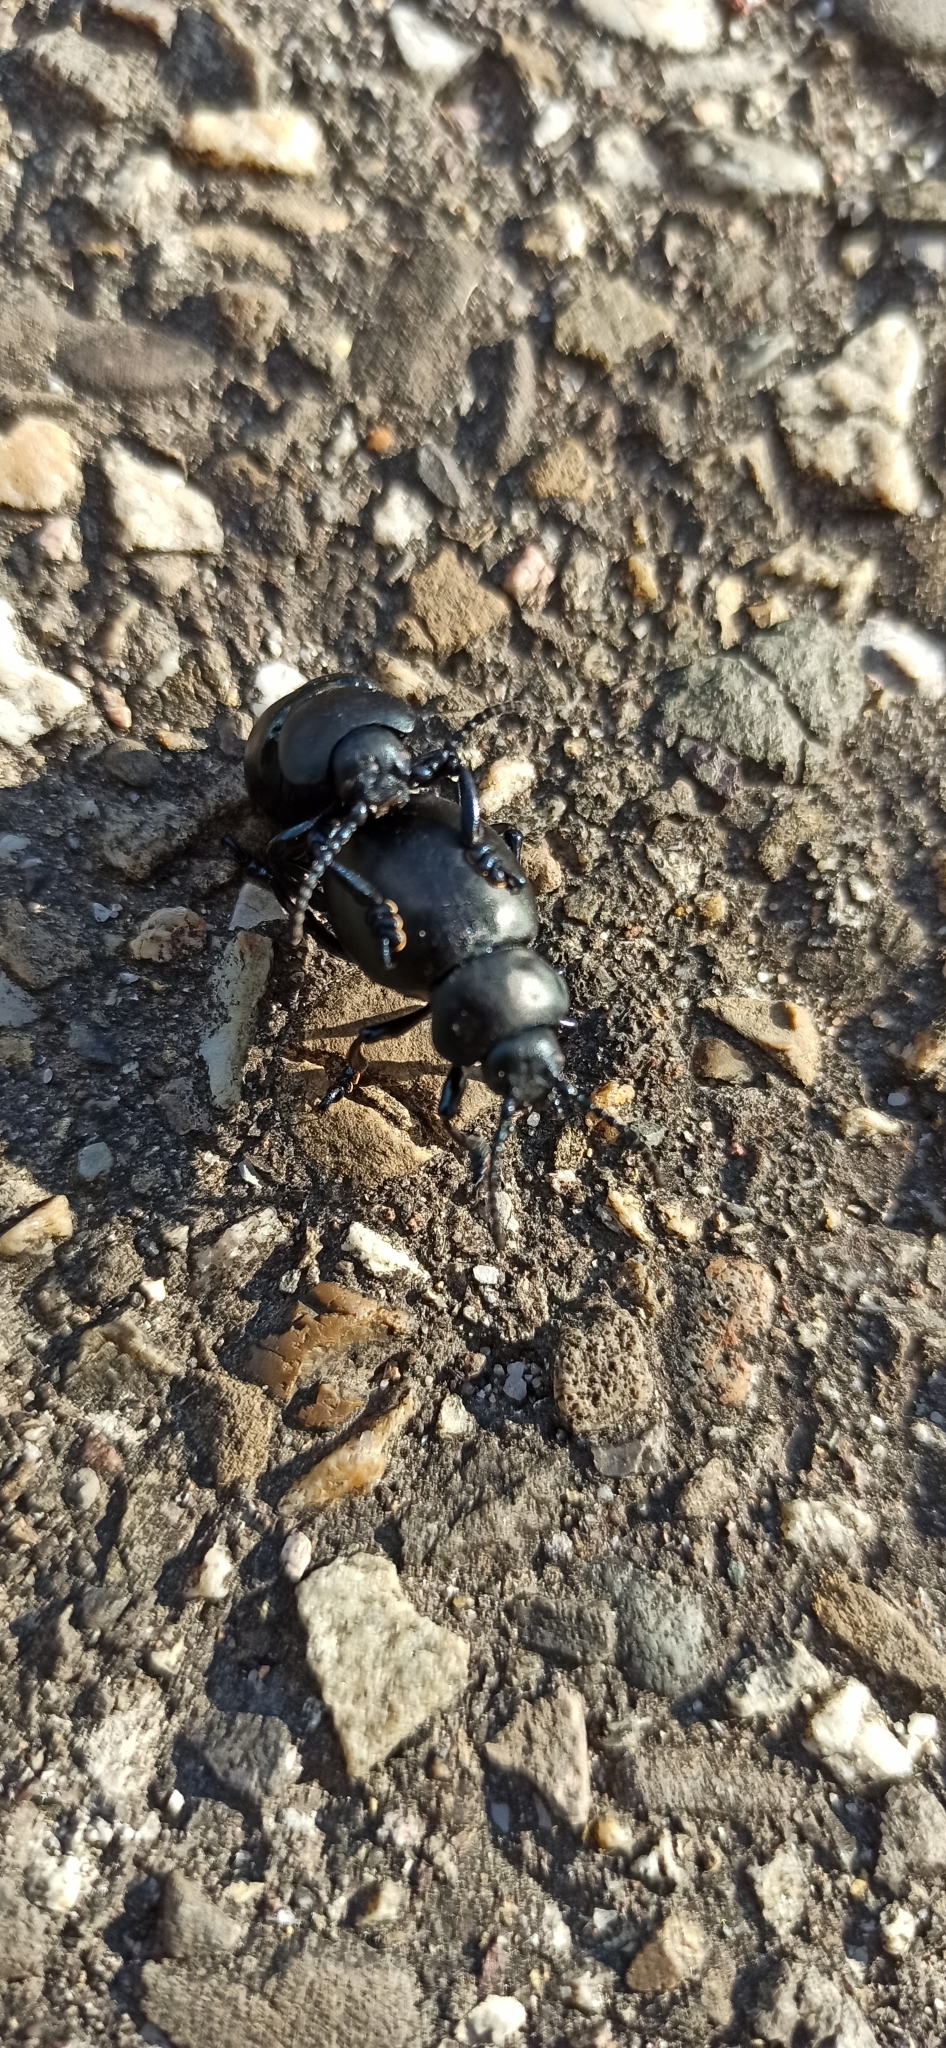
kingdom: Animalia
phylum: Arthropoda
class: Insecta
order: Coleoptera
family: Chrysomelidae
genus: Timarcha
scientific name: Timarcha tenebricosa
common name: Bloody-nosed beetle
